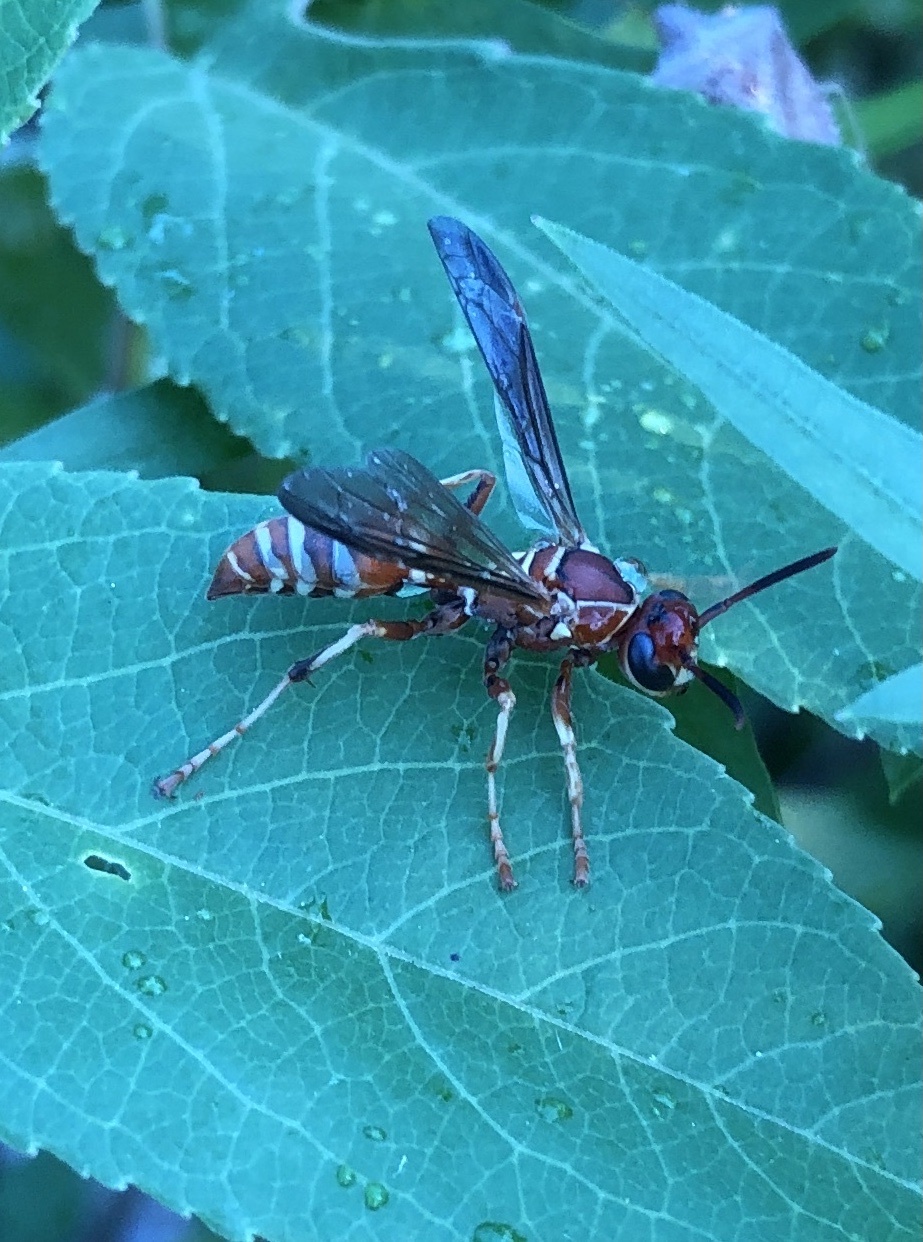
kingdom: Animalia
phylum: Arthropoda
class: Insecta
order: Hymenoptera
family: Eumenidae
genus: Polistes
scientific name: Polistes dorsalis
